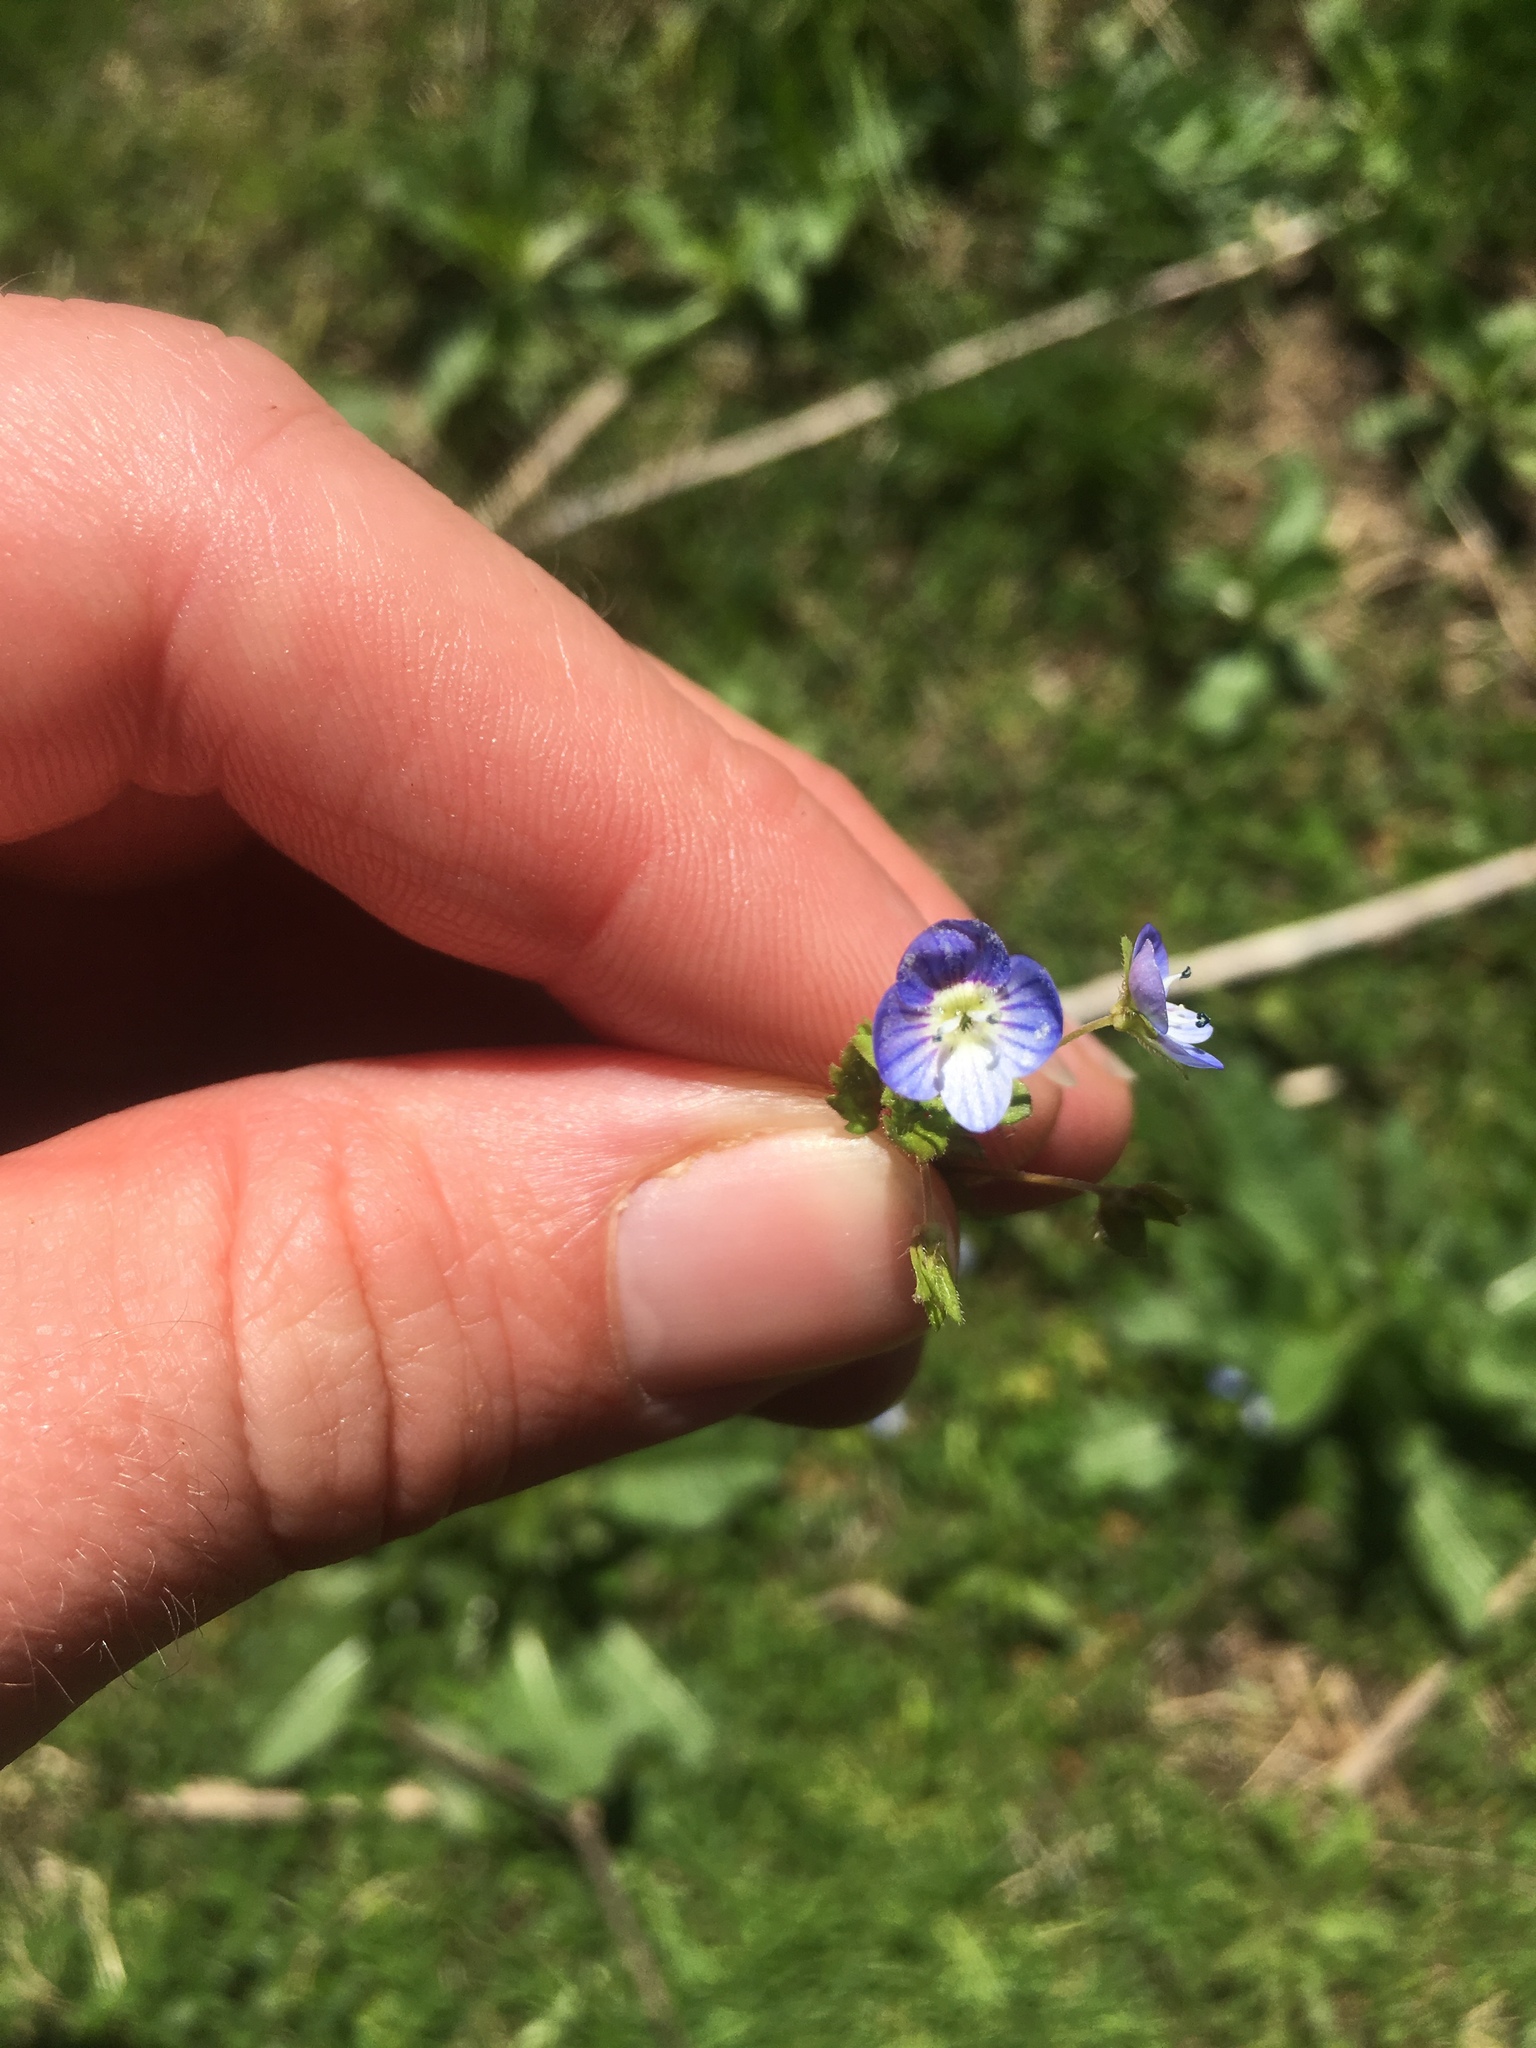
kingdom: Plantae
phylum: Tracheophyta
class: Magnoliopsida
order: Lamiales
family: Plantaginaceae
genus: Veronica
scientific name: Veronica persica
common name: Common field-speedwell
